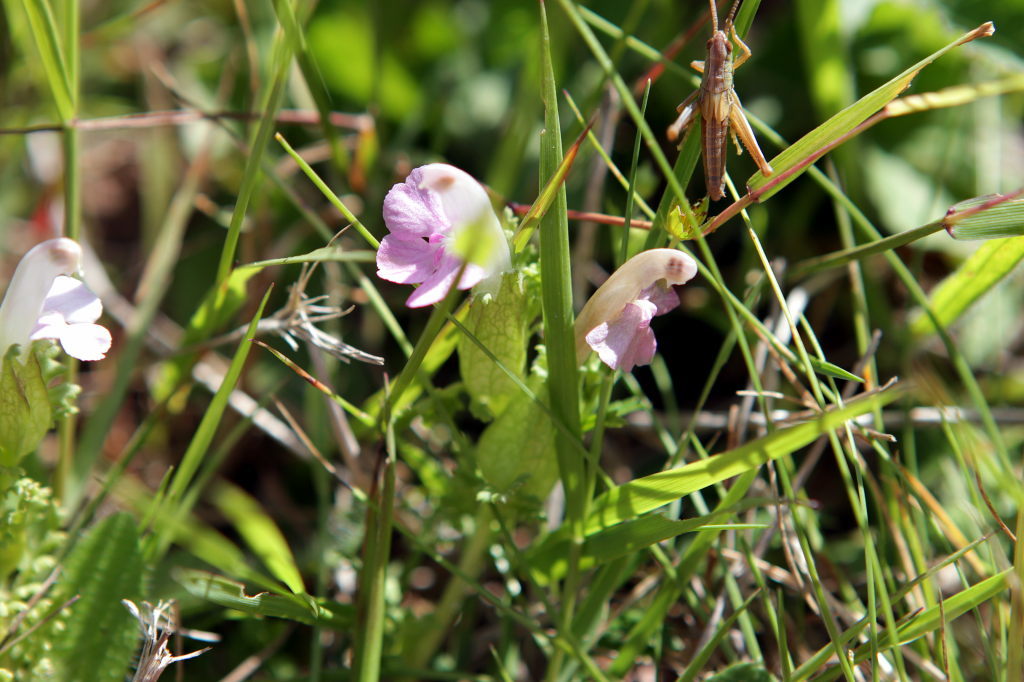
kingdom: Plantae
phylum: Tracheophyta
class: Magnoliopsida
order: Lamiales
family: Orobanchaceae
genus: Pedicularis
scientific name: Pedicularis sylvatica
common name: Lousewort
